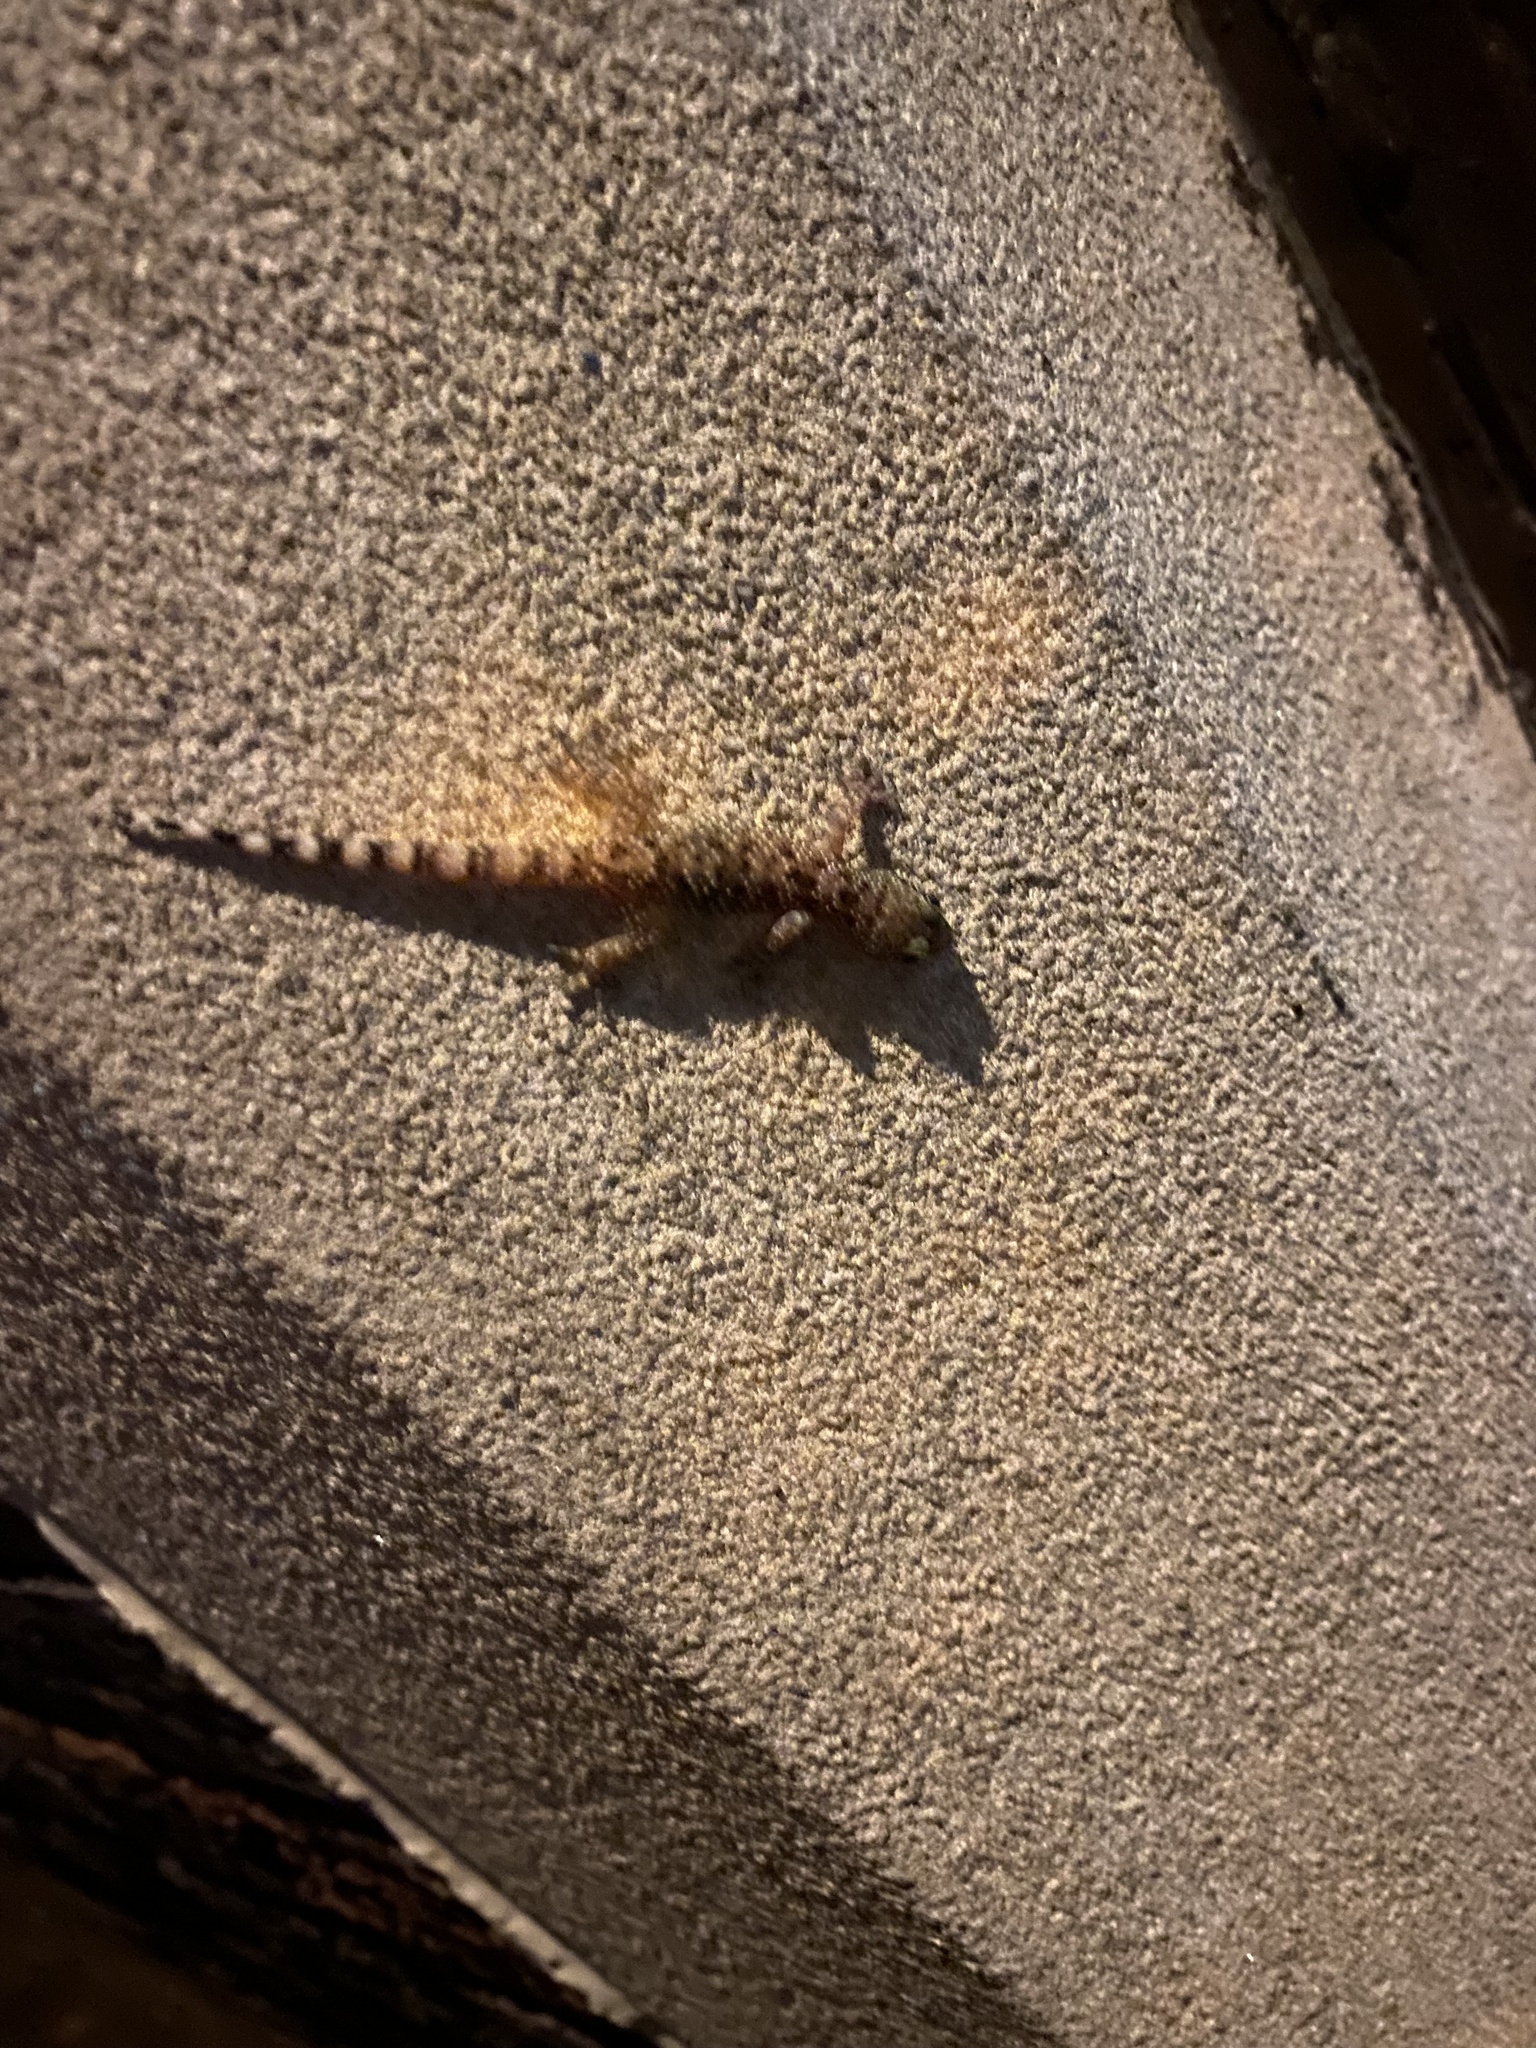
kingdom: Animalia
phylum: Chordata
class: Squamata
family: Gekkonidae
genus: Hemidactylus
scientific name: Hemidactylus turcicus
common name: Turkish gecko
